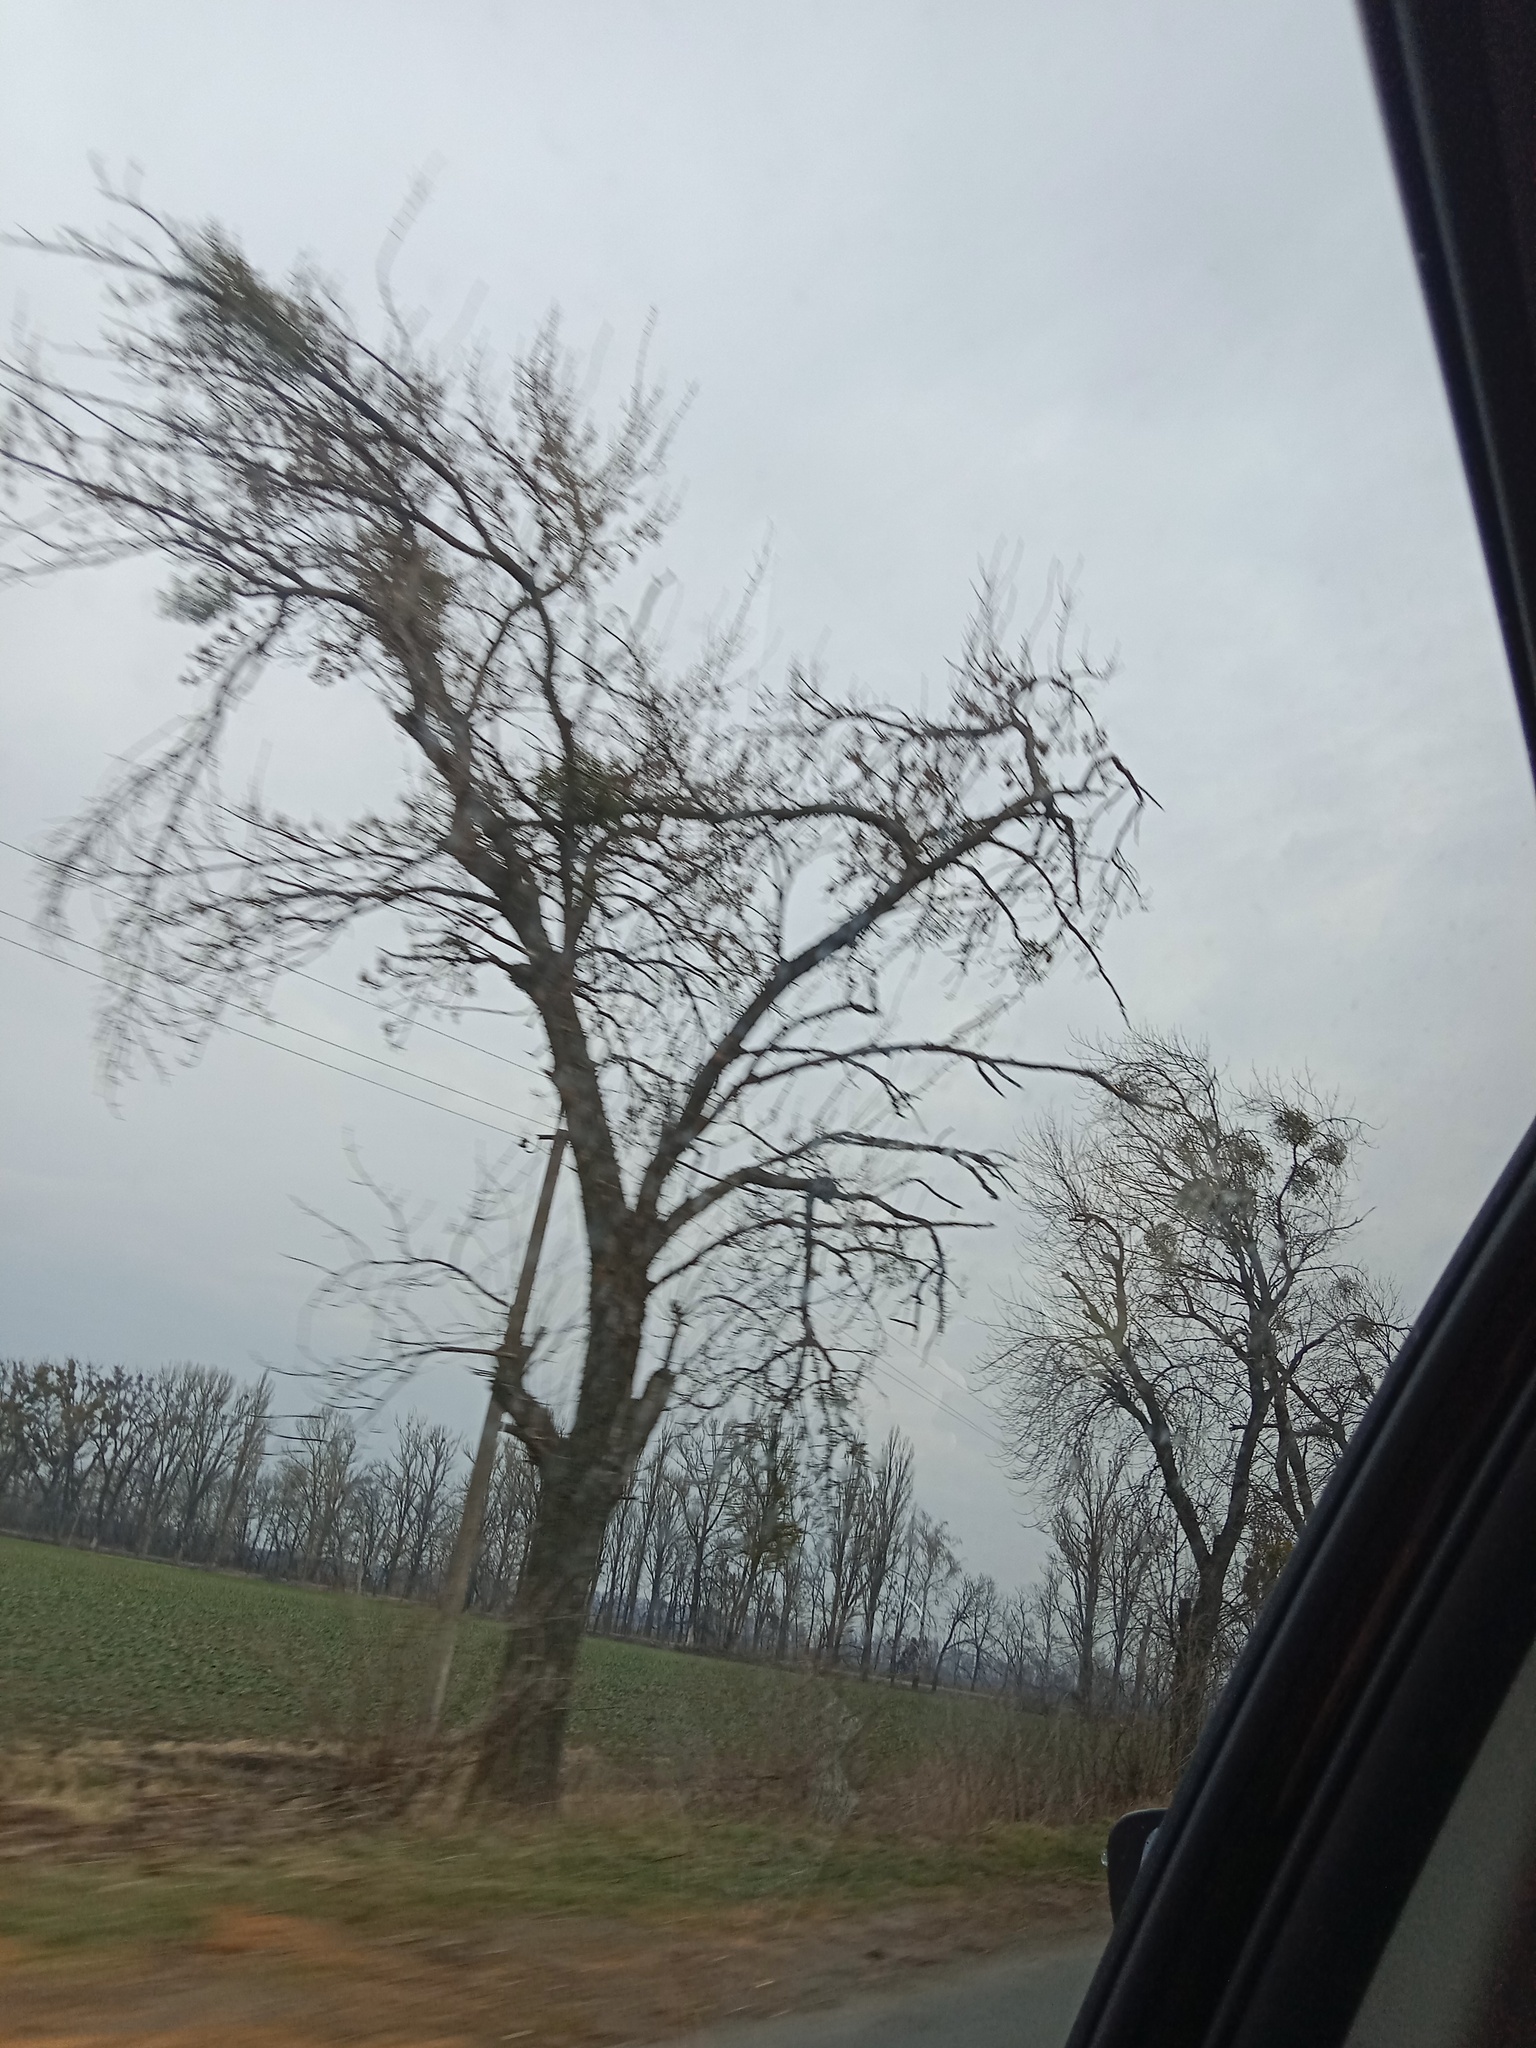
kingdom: Plantae
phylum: Tracheophyta
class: Magnoliopsida
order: Santalales
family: Viscaceae
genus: Viscum
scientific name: Viscum album
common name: Mistletoe
